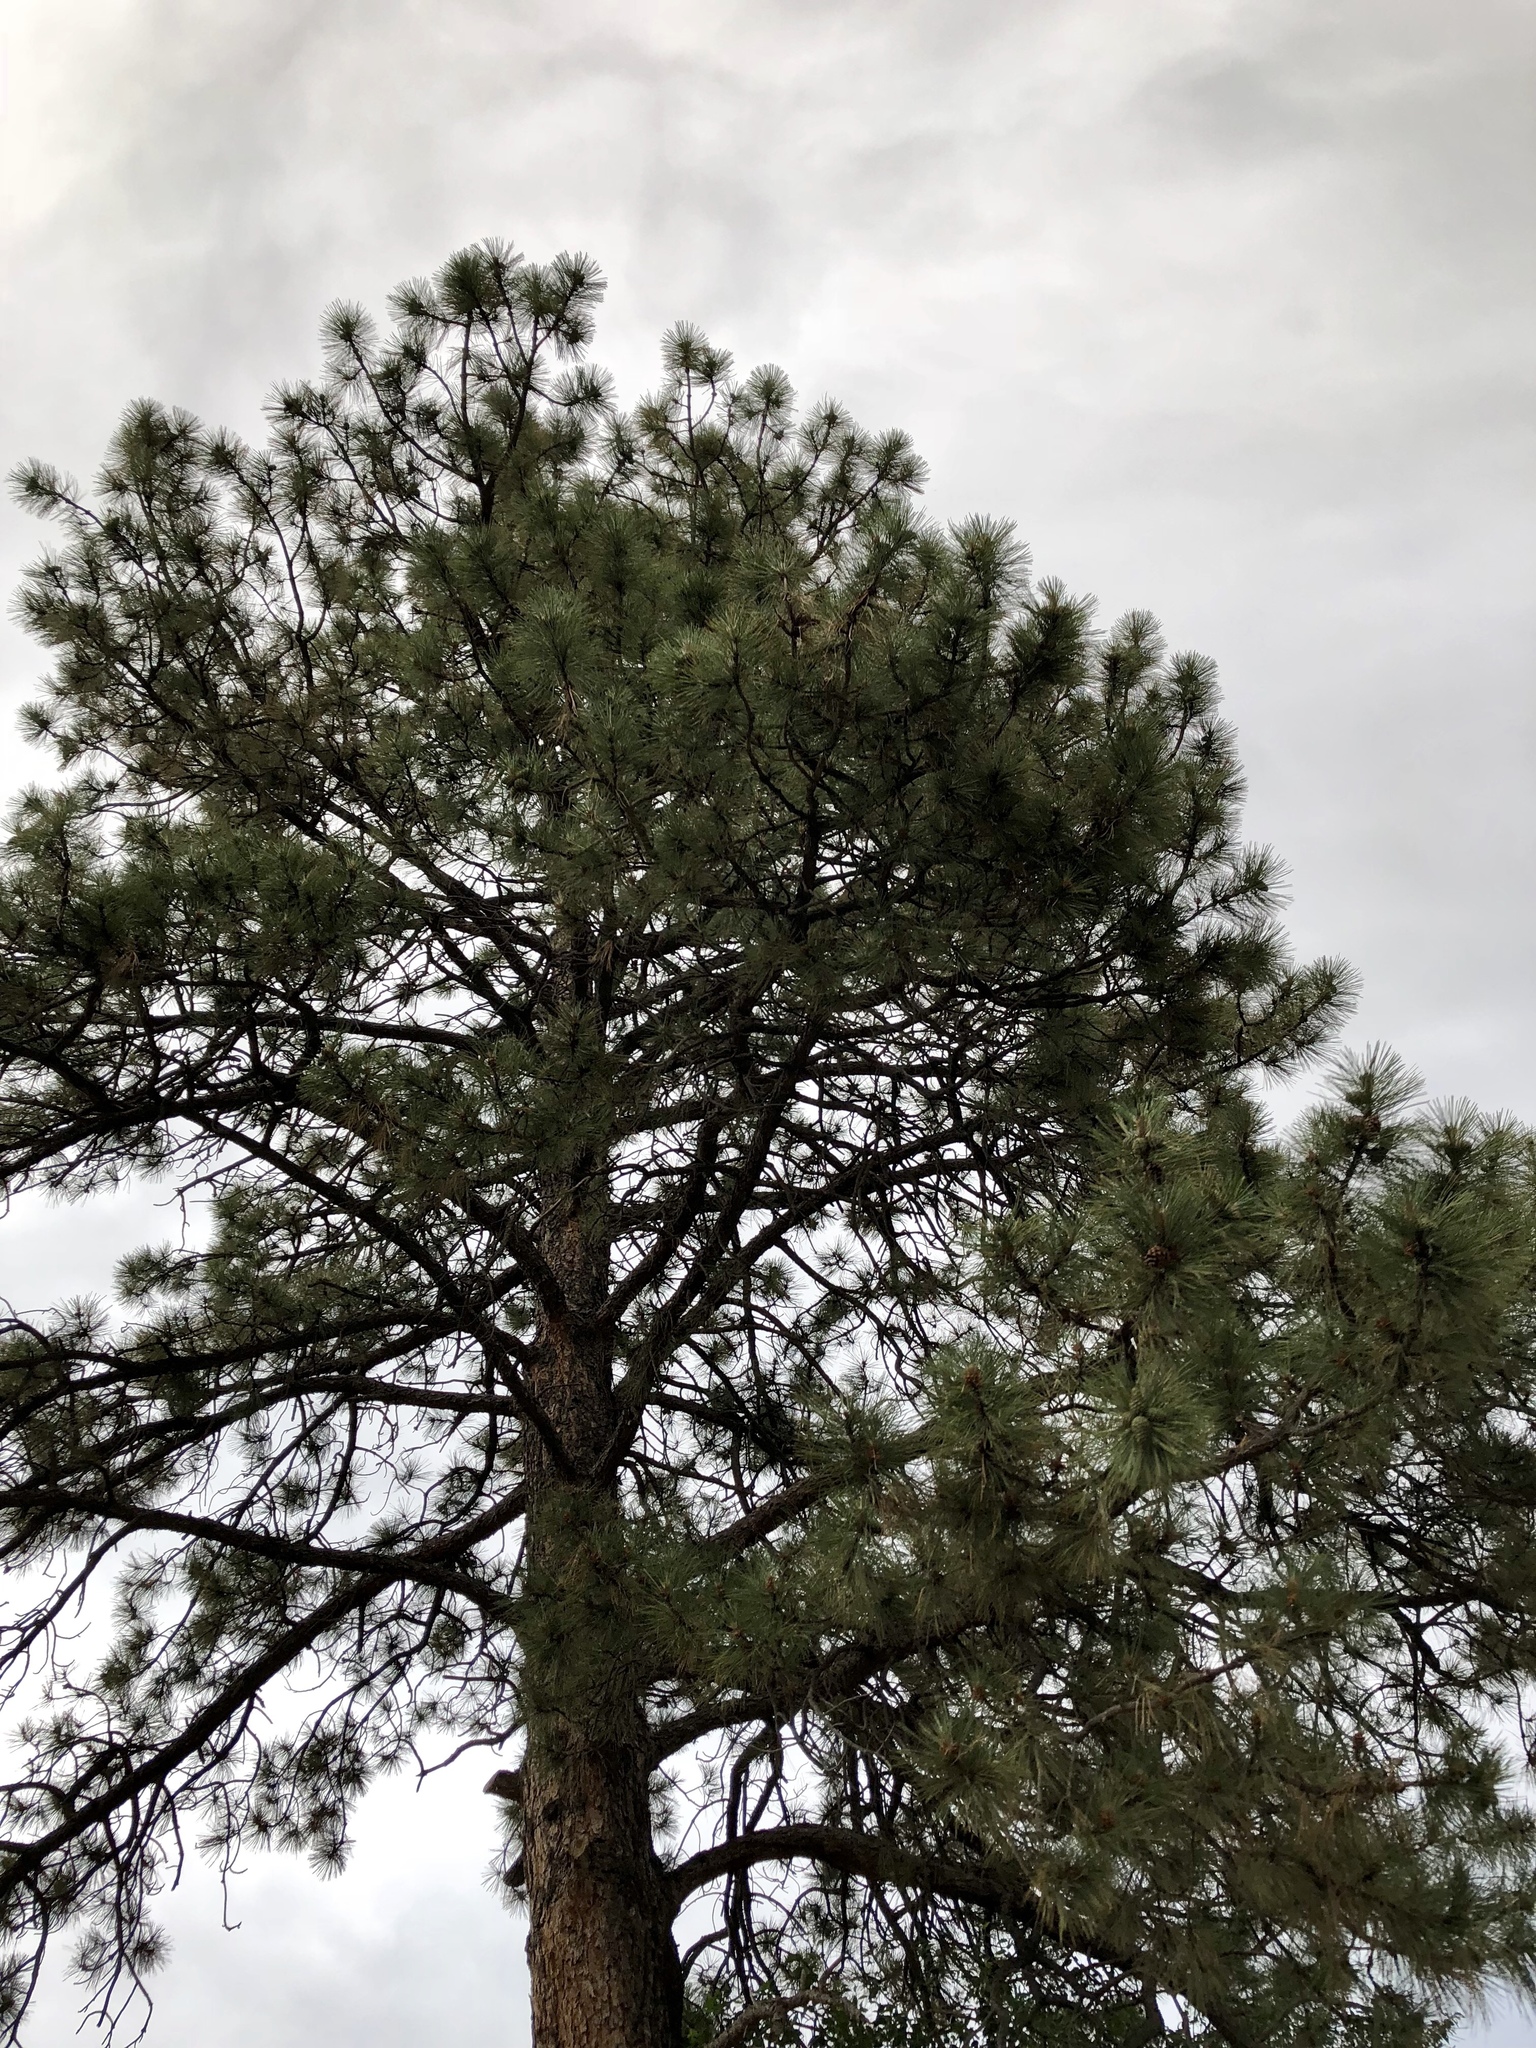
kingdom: Plantae
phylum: Tracheophyta
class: Pinopsida
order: Pinales
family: Pinaceae
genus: Pinus
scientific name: Pinus ponderosa
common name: Western yellow-pine
